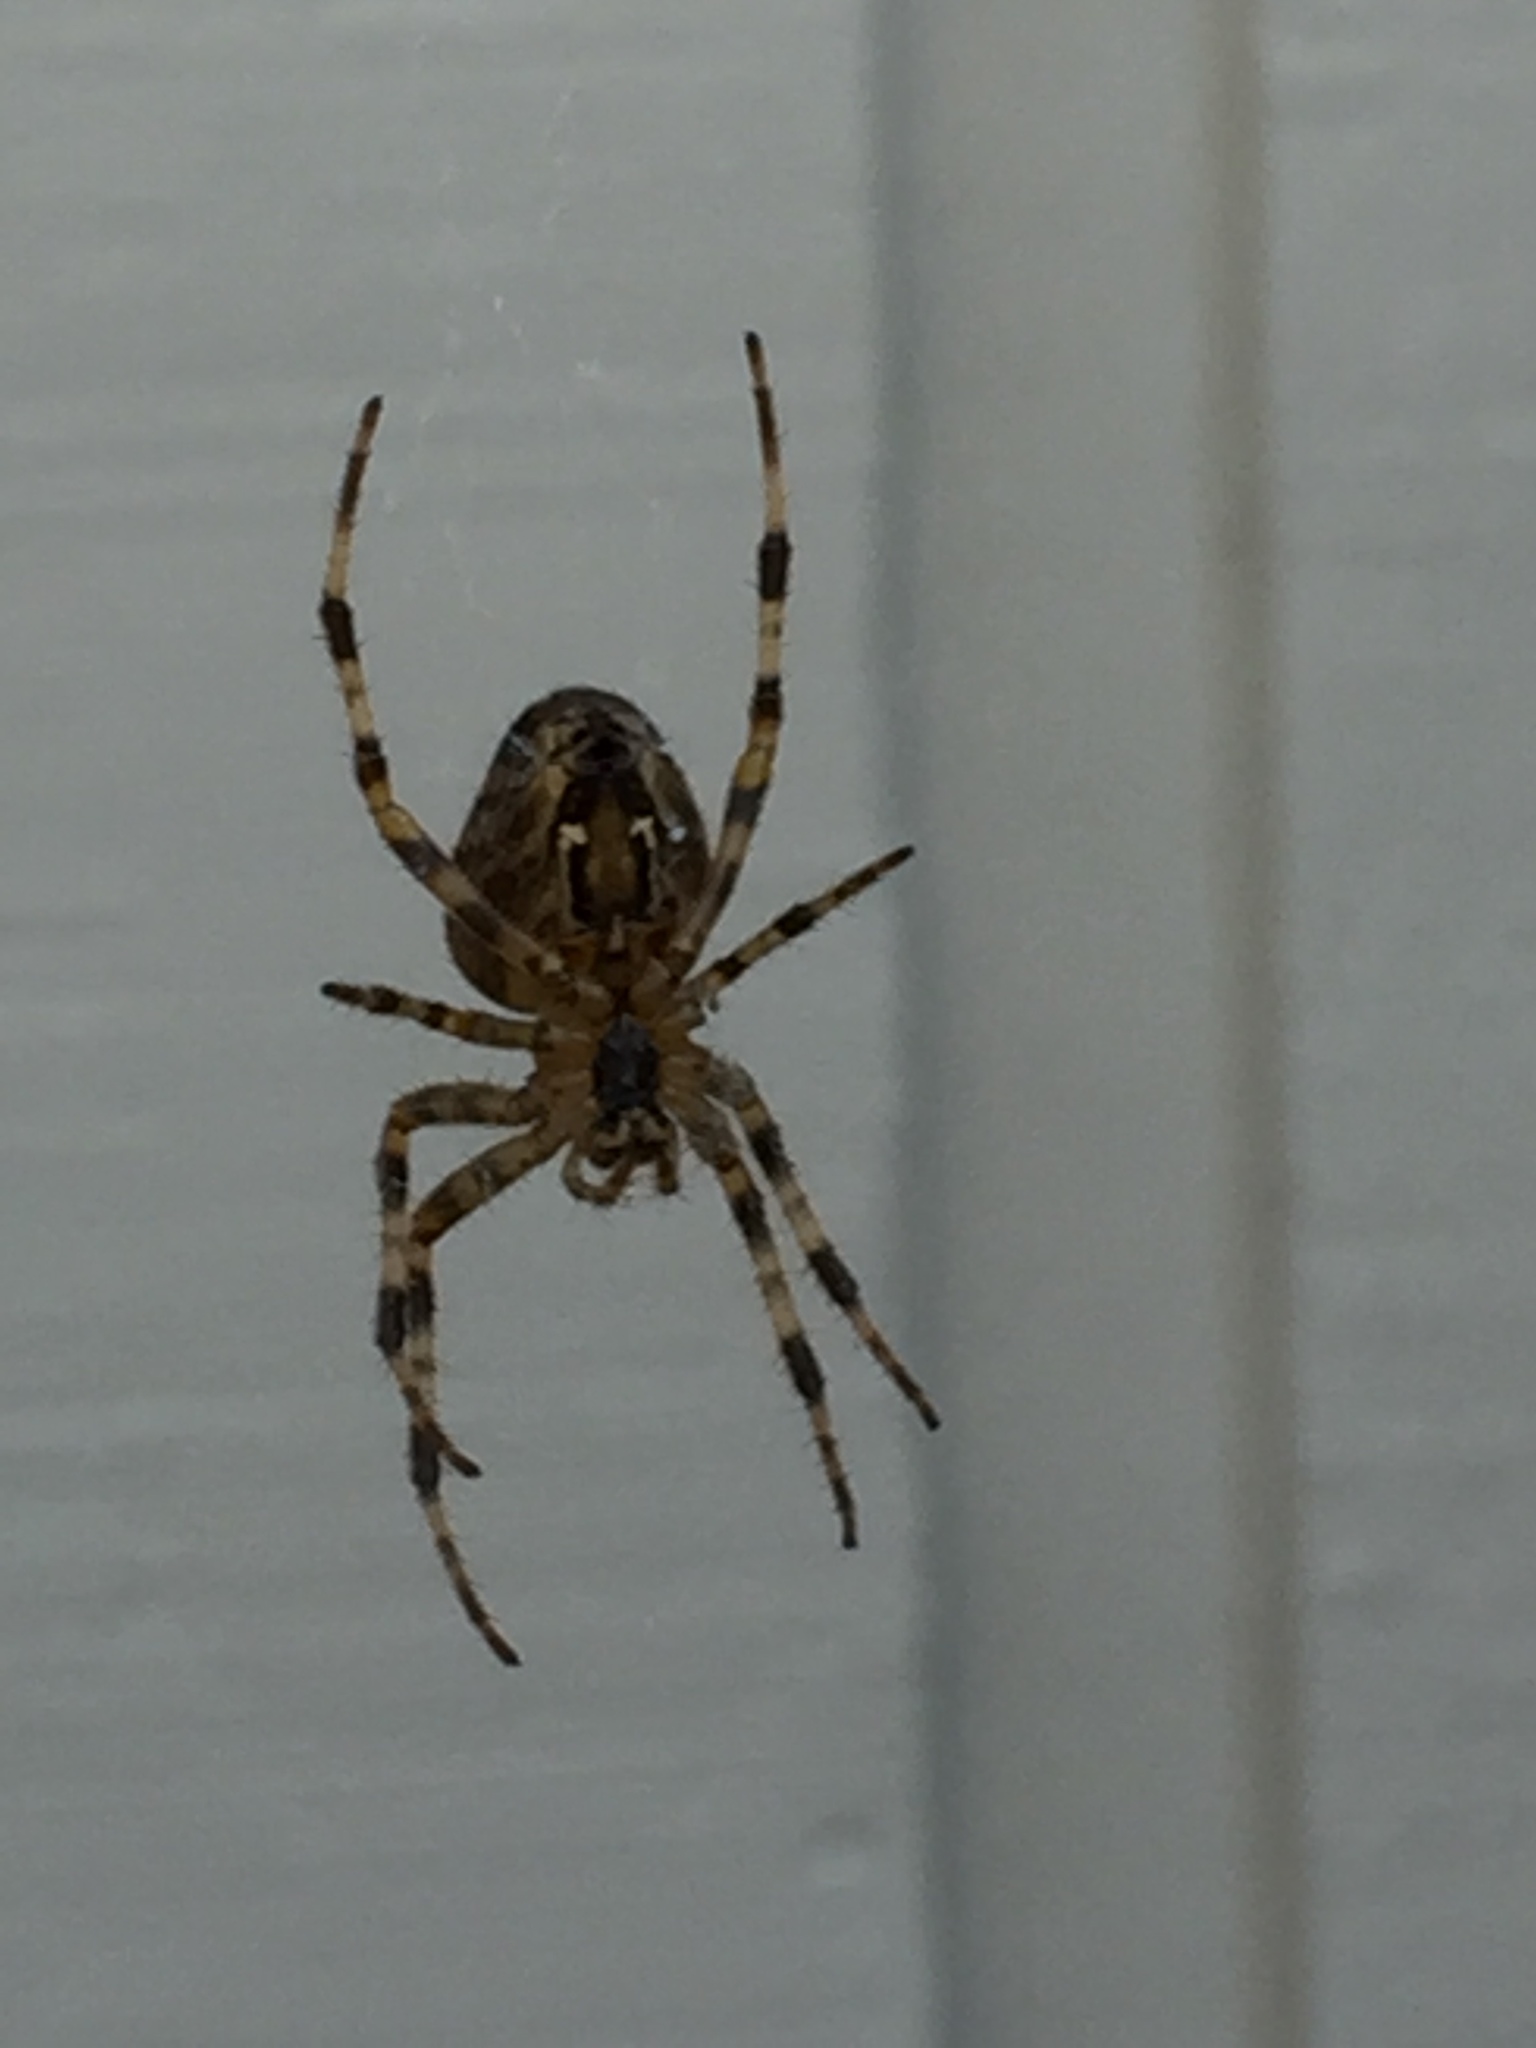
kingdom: Animalia
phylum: Arthropoda
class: Arachnida
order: Araneae
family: Araneidae
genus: Araneus
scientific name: Araneus diadematus
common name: Cross orbweaver
